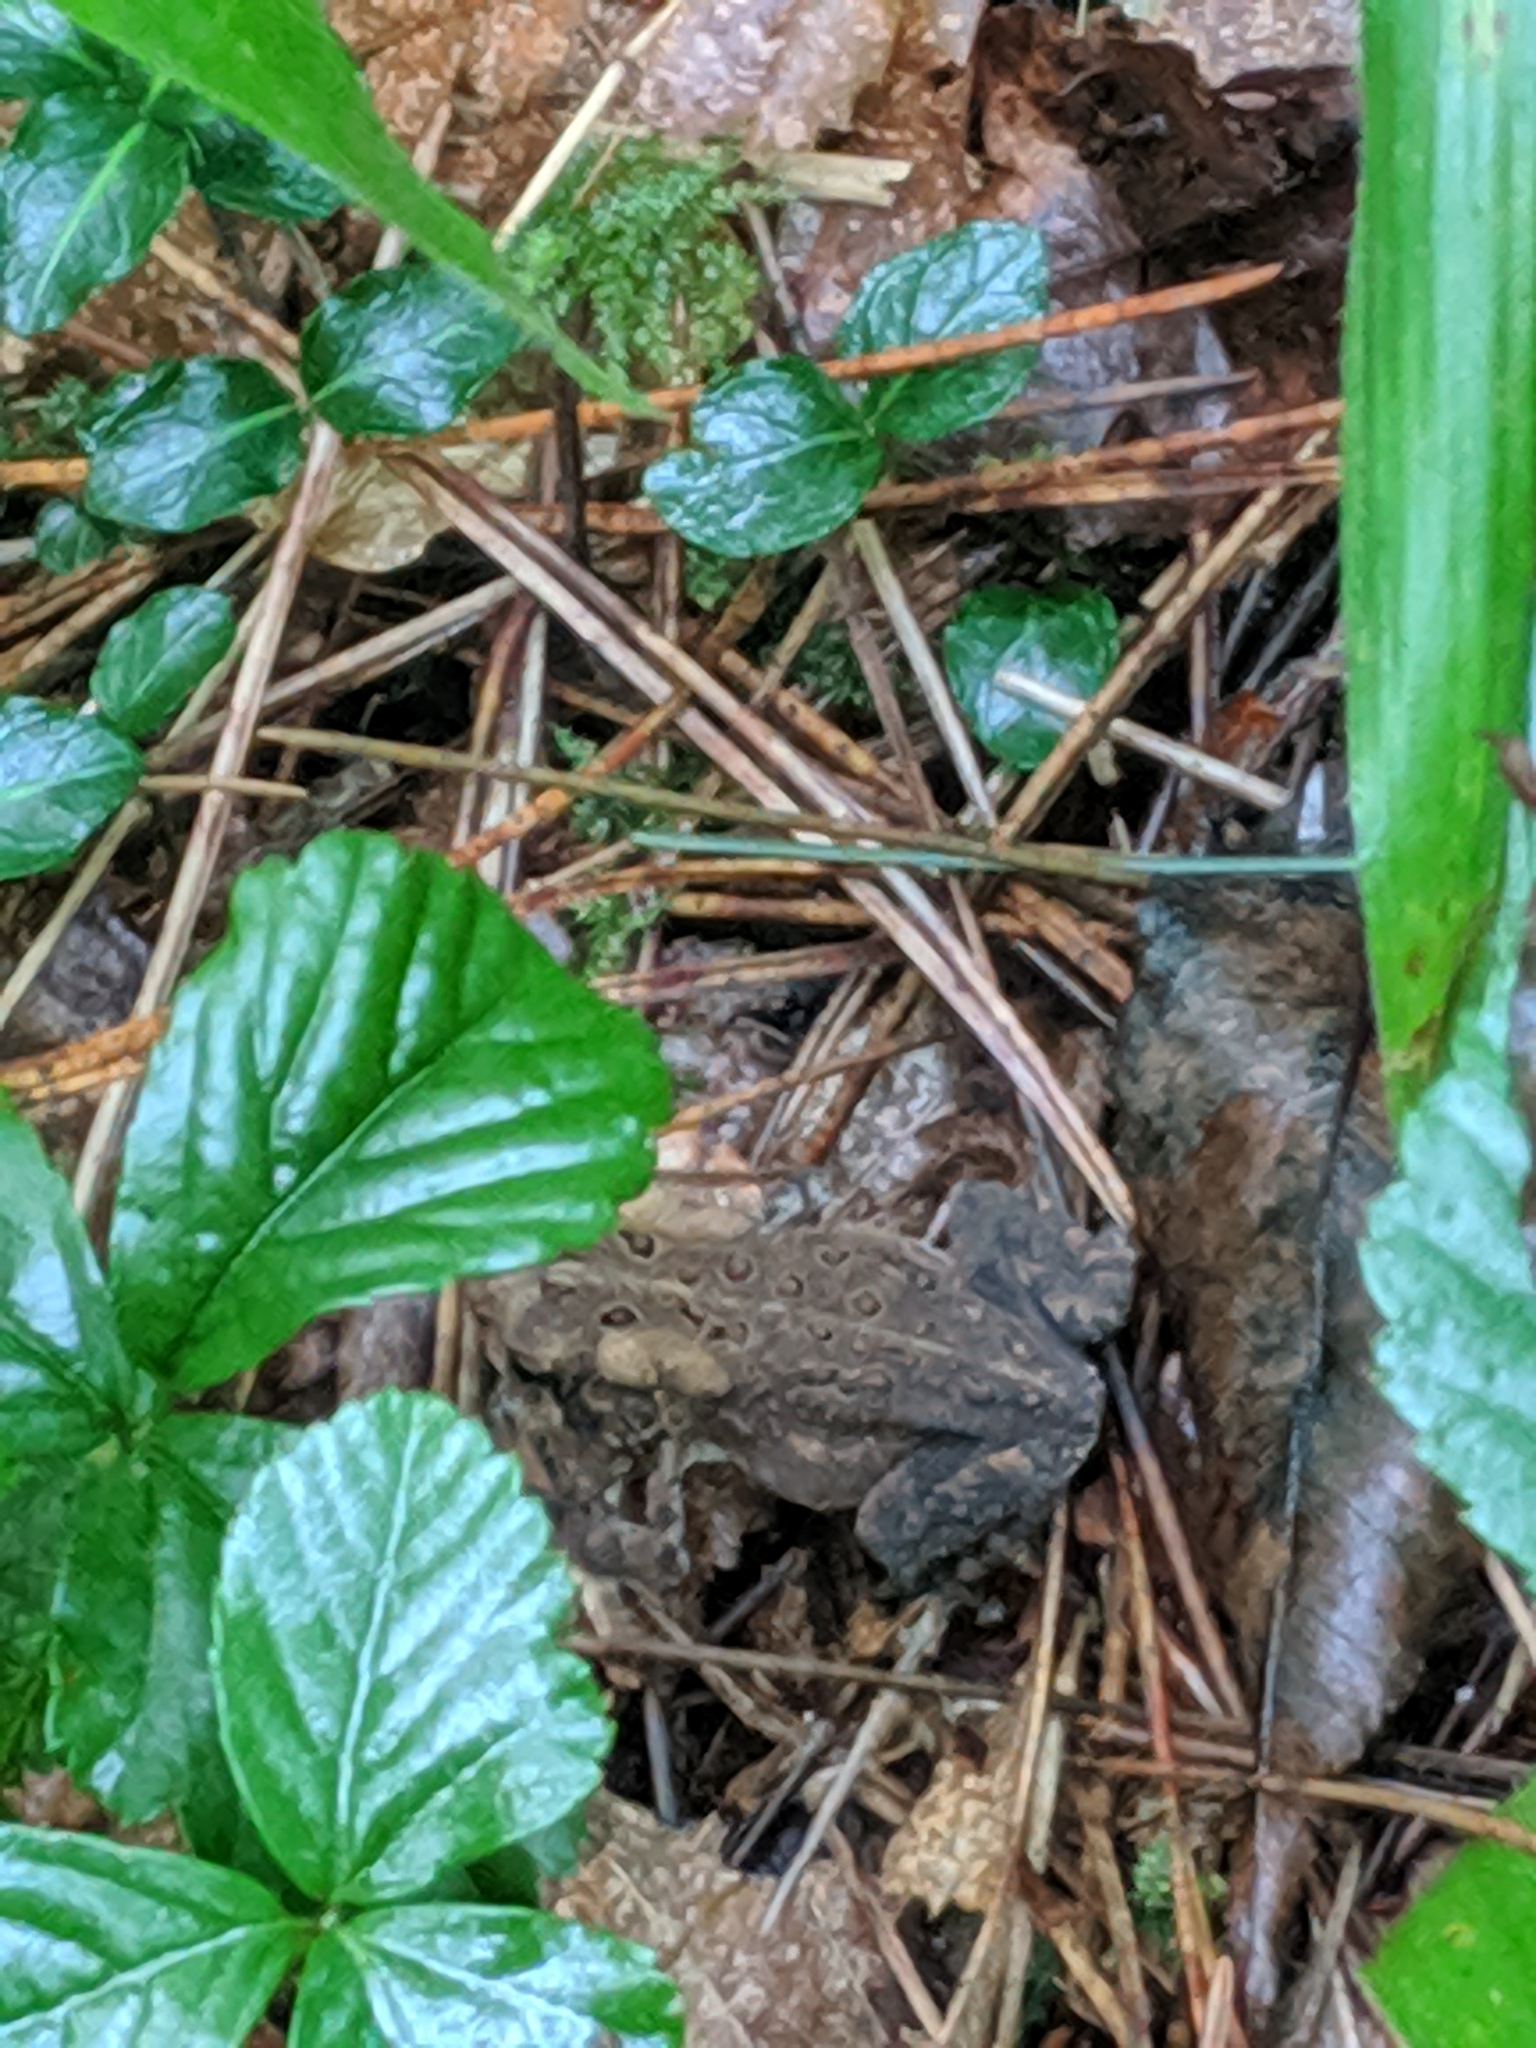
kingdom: Animalia
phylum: Chordata
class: Amphibia
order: Anura
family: Bufonidae
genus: Anaxyrus
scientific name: Anaxyrus americanus
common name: American toad
